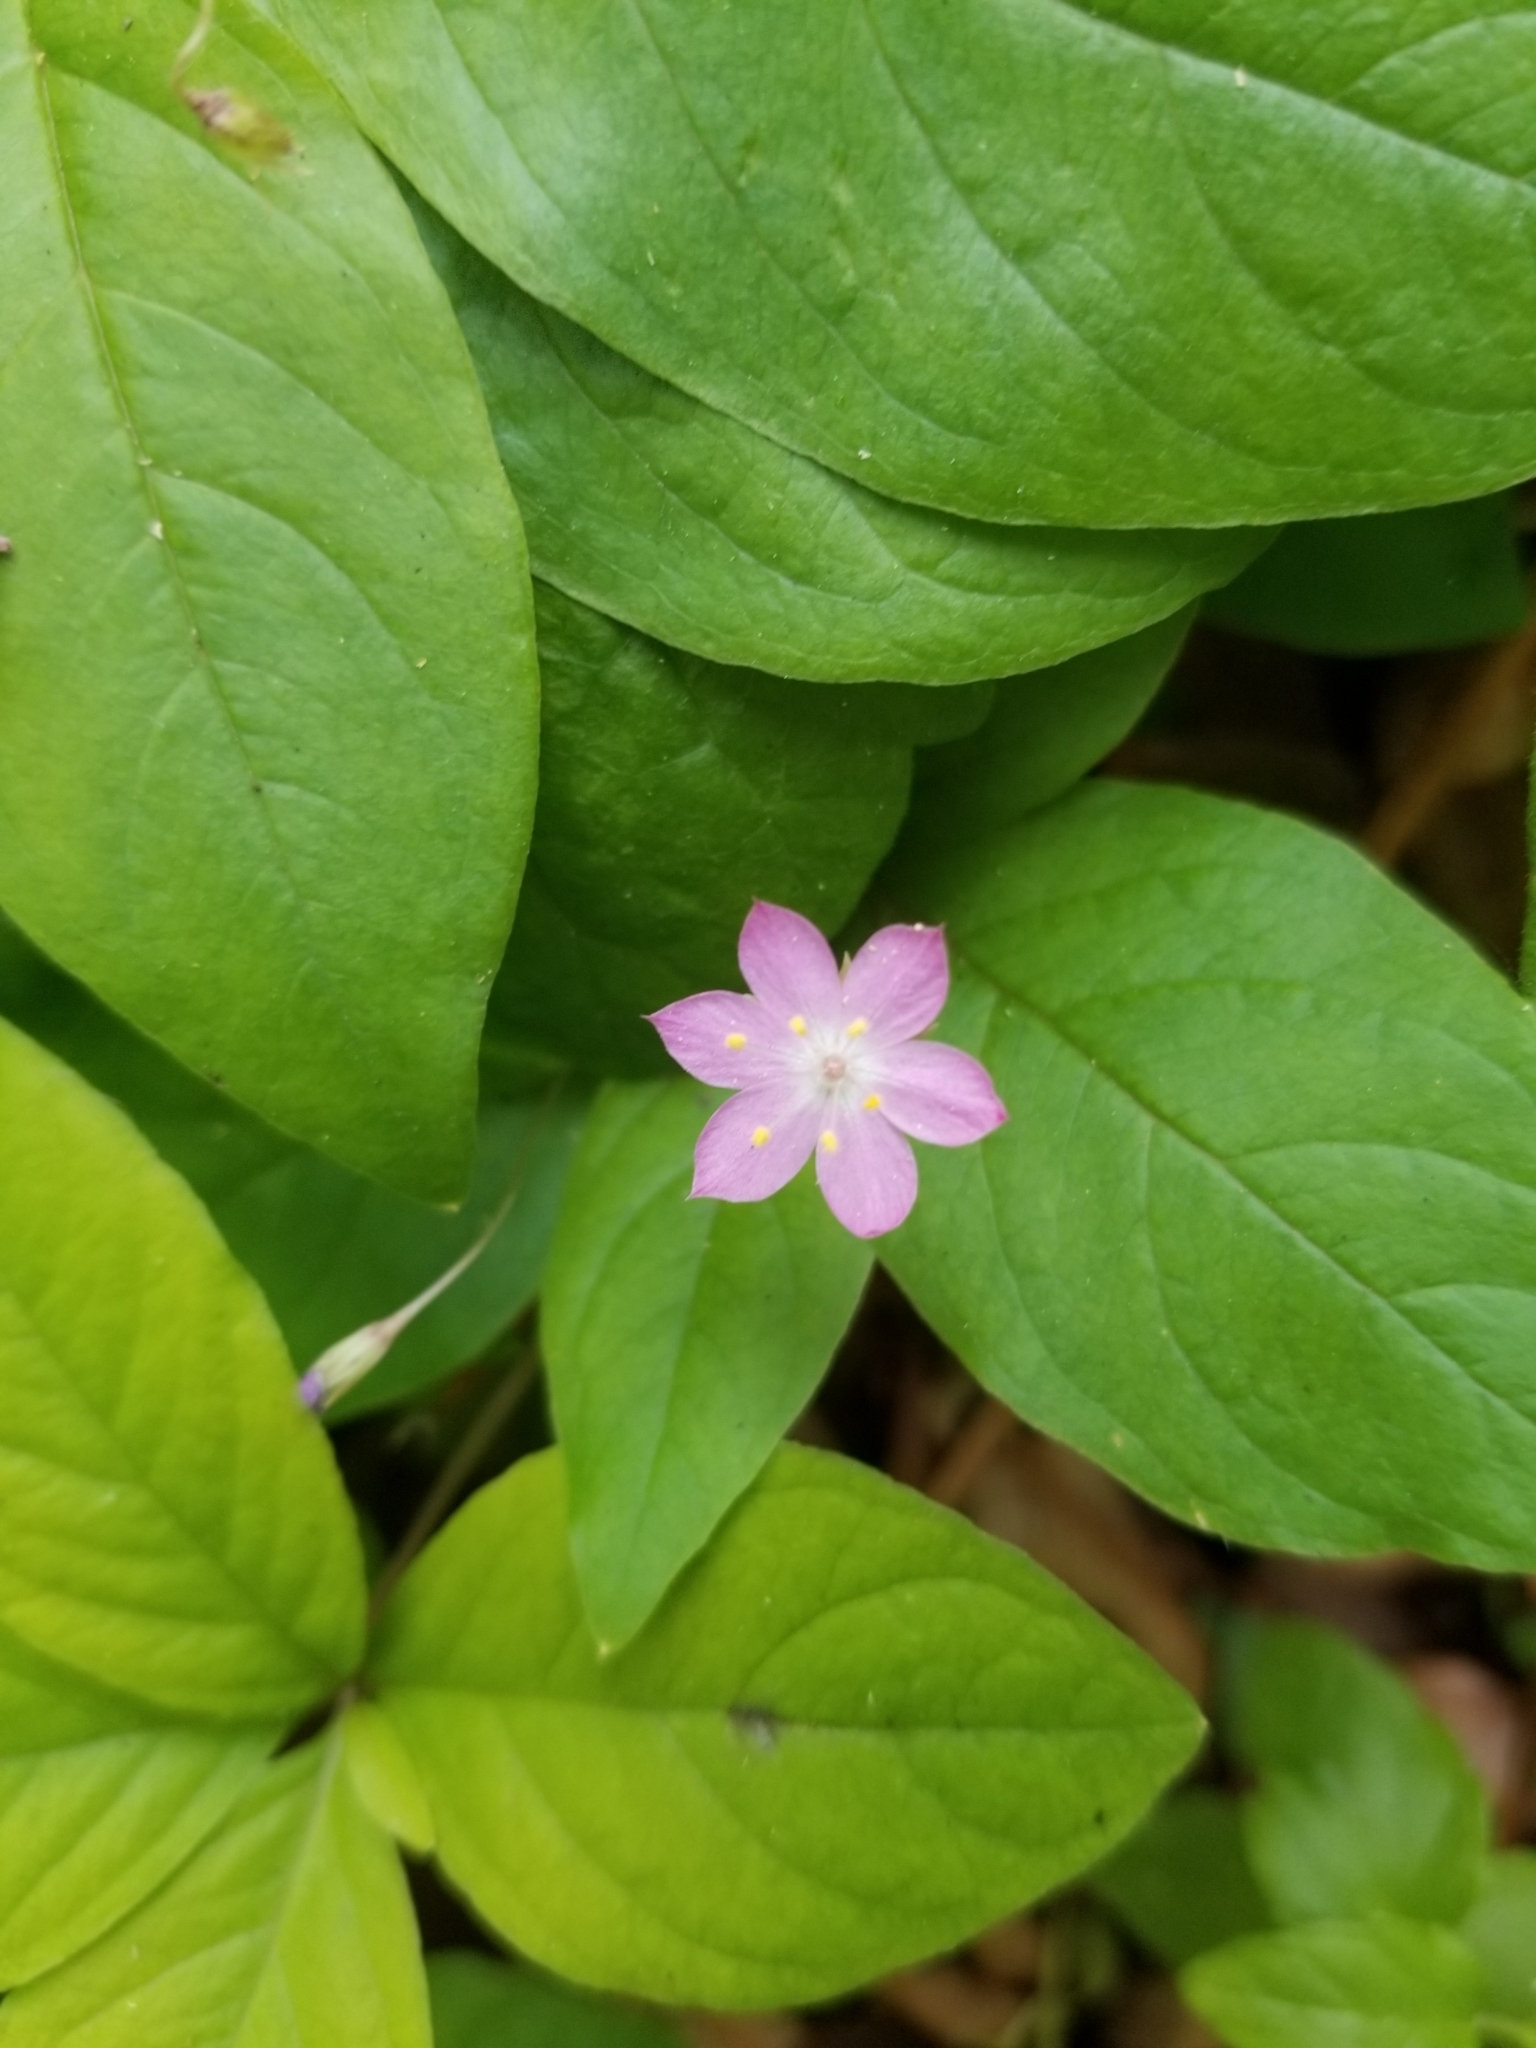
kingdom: Plantae
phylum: Tracheophyta
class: Magnoliopsida
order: Ericales
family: Primulaceae
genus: Lysimachia
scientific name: Lysimachia latifolia
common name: Pacific starflower
